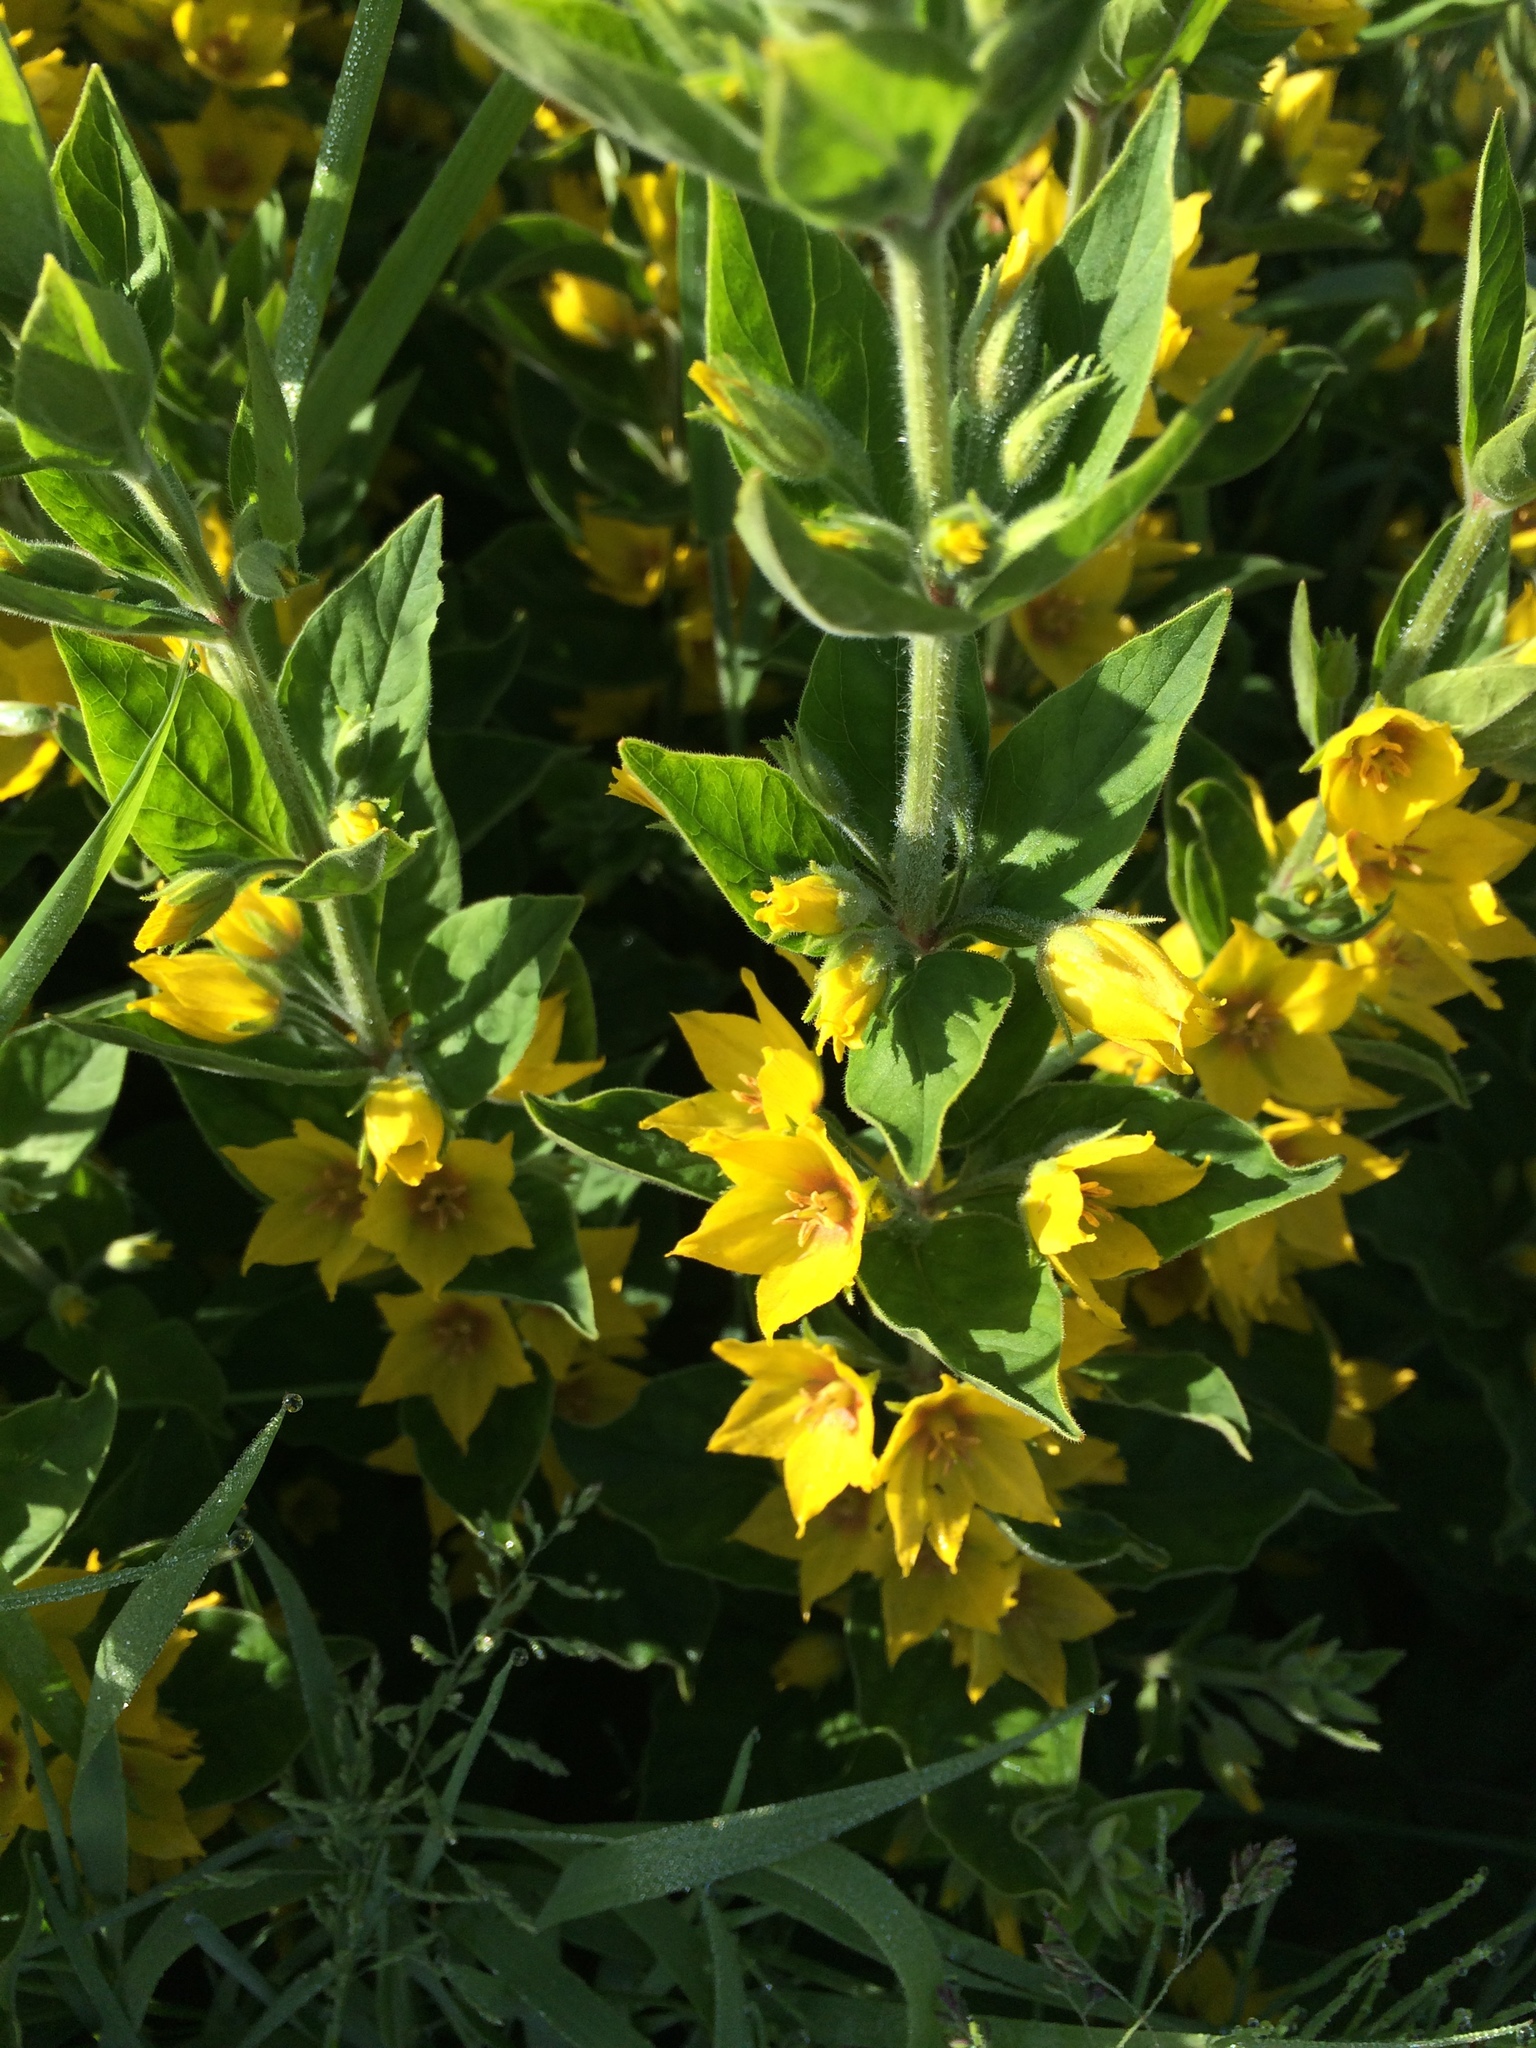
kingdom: Plantae
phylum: Tracheophyta
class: Magnoliopsida
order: Ericales
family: Primulaceae
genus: Lysimachia
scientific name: Lysimachia punctata
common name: Dotted loosestrife
